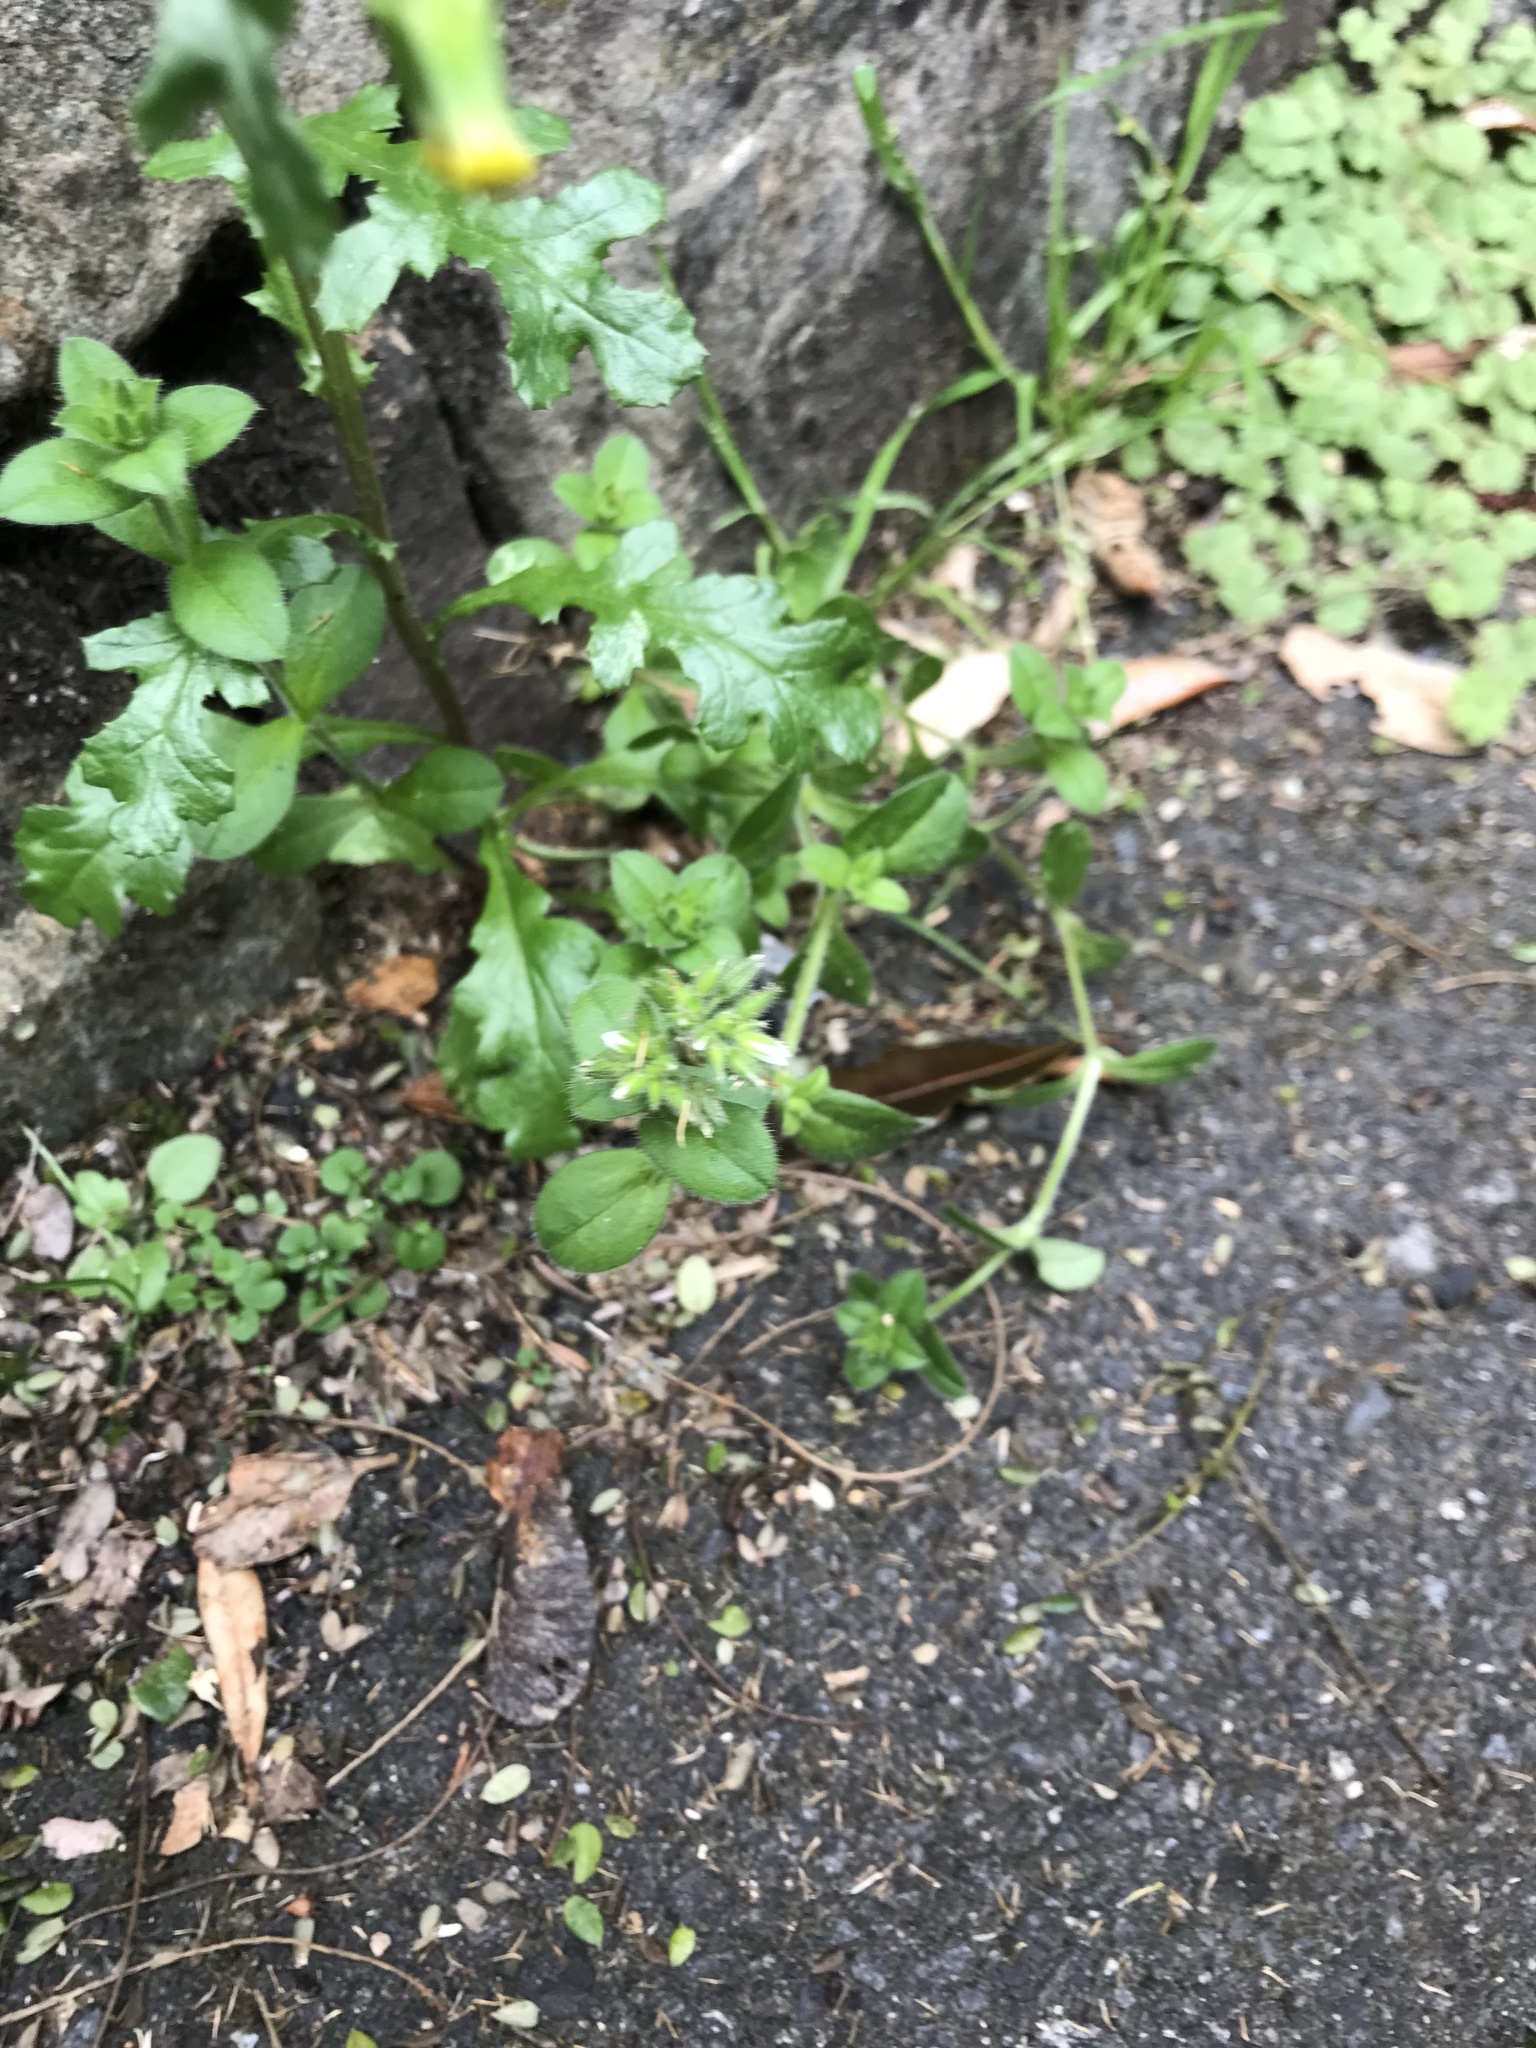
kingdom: Plantae
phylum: Tracheophyta
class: Magnoliopsida
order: Caryophyllales
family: Caryophyllaceae
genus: Stellaria
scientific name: Stellaria media
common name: Common chickweed
